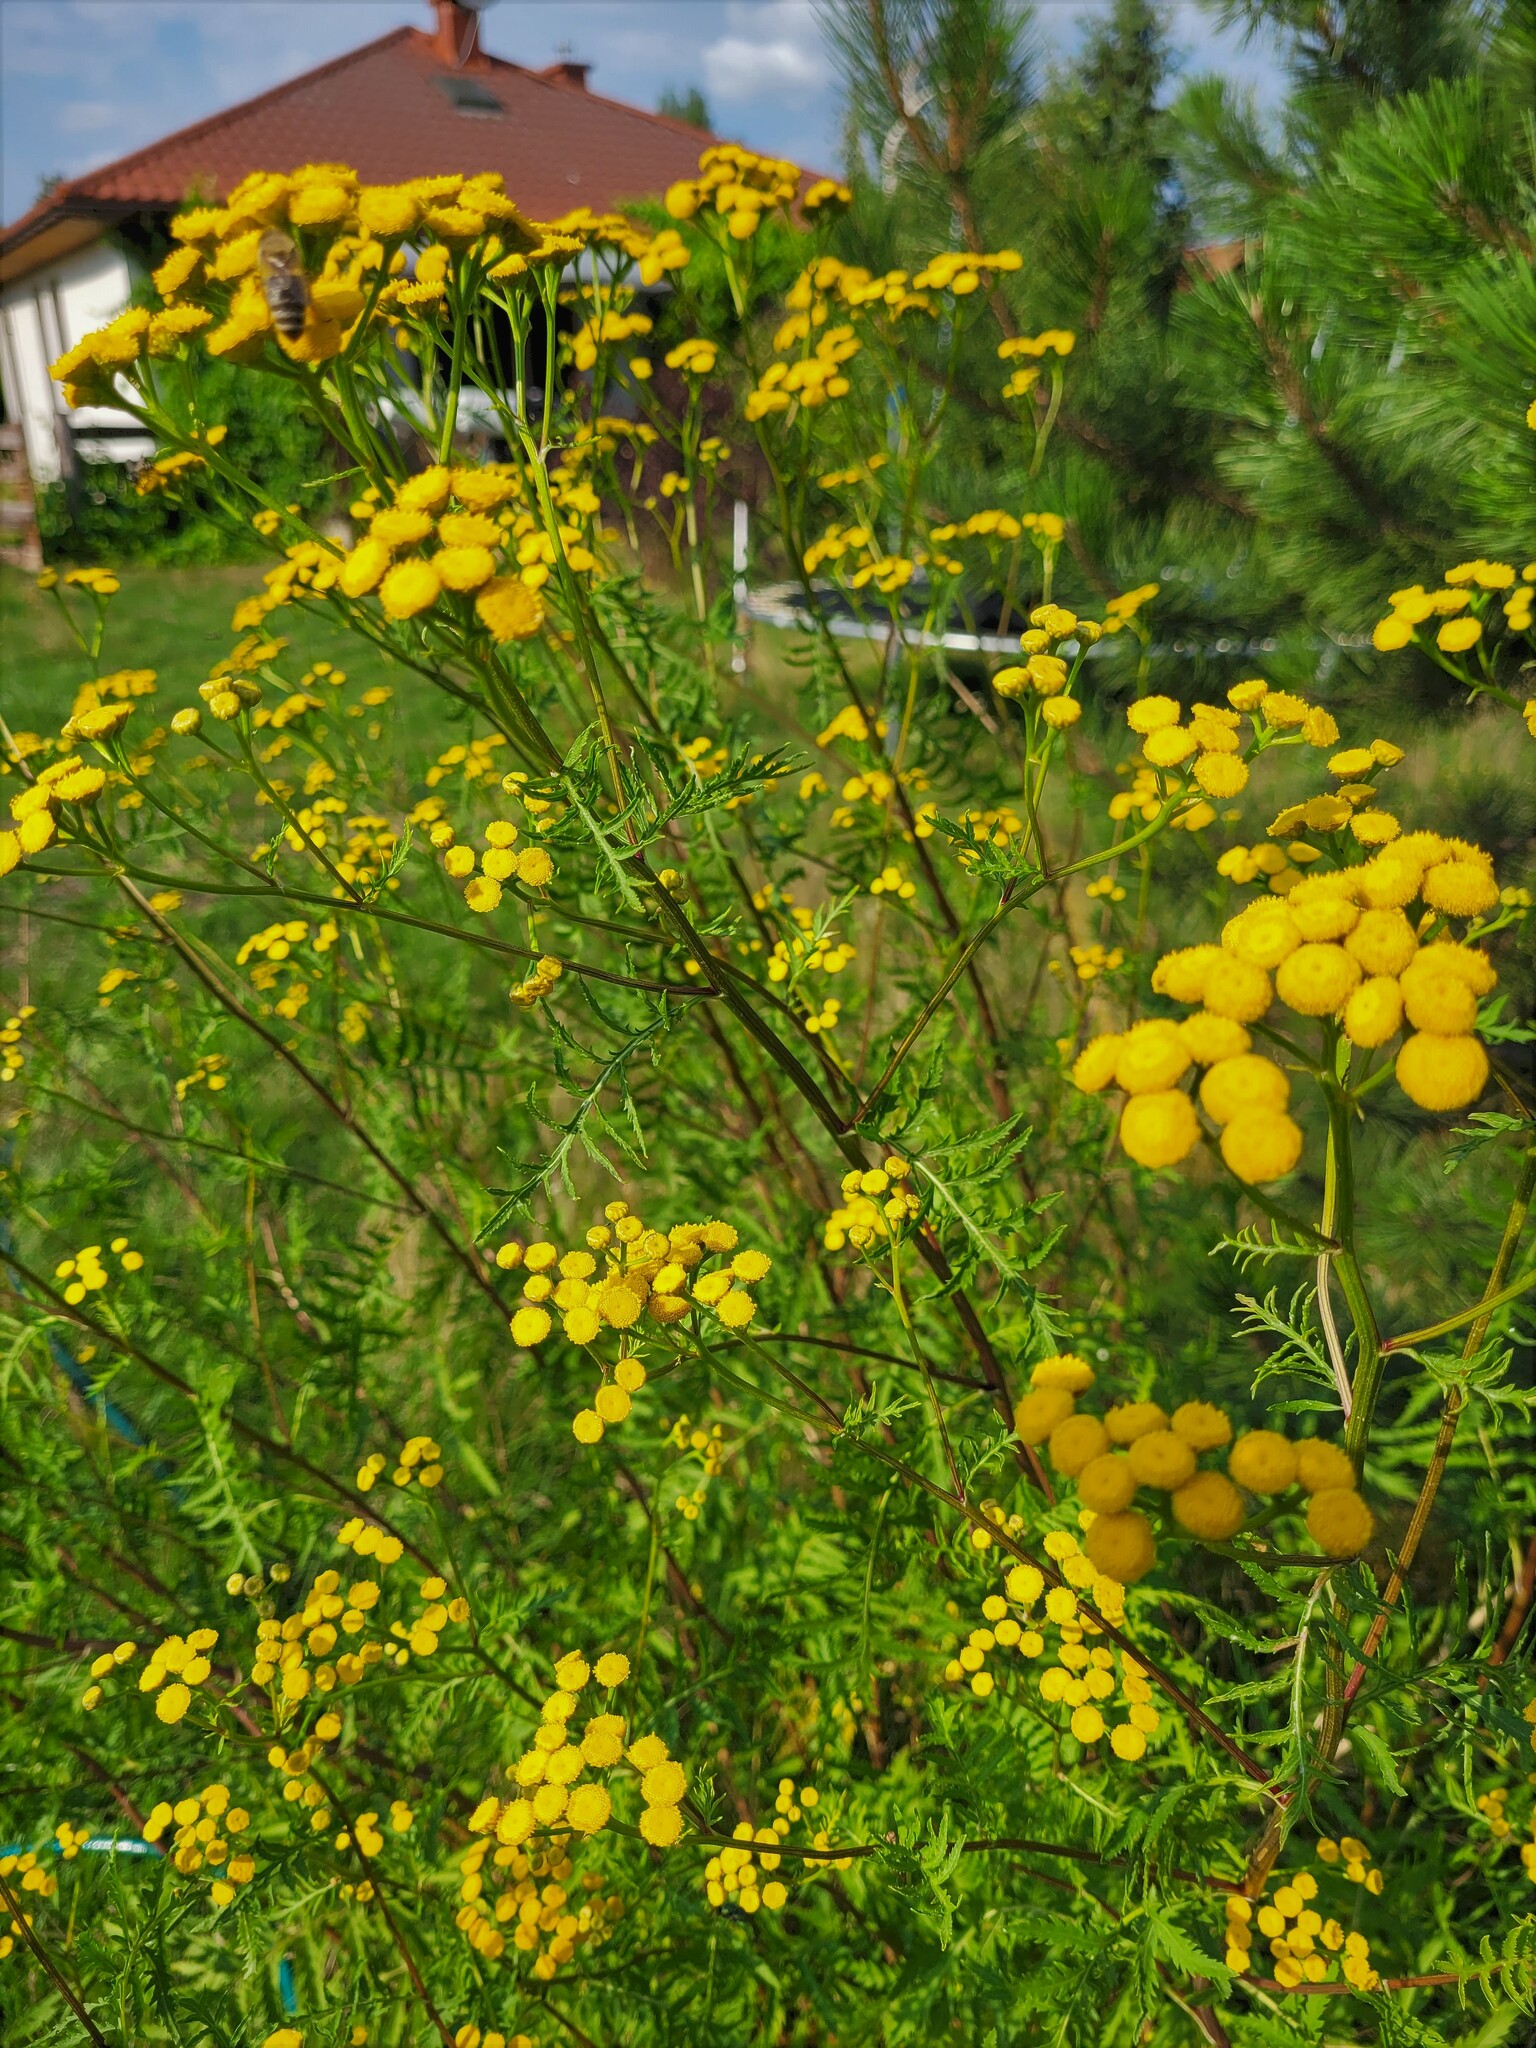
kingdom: Plantae
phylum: Tracheophyta
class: Magnoliopsida
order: Asterales
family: Asteraceae
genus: Tanacetum
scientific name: Tanacetum vulgare
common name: Common tansy
